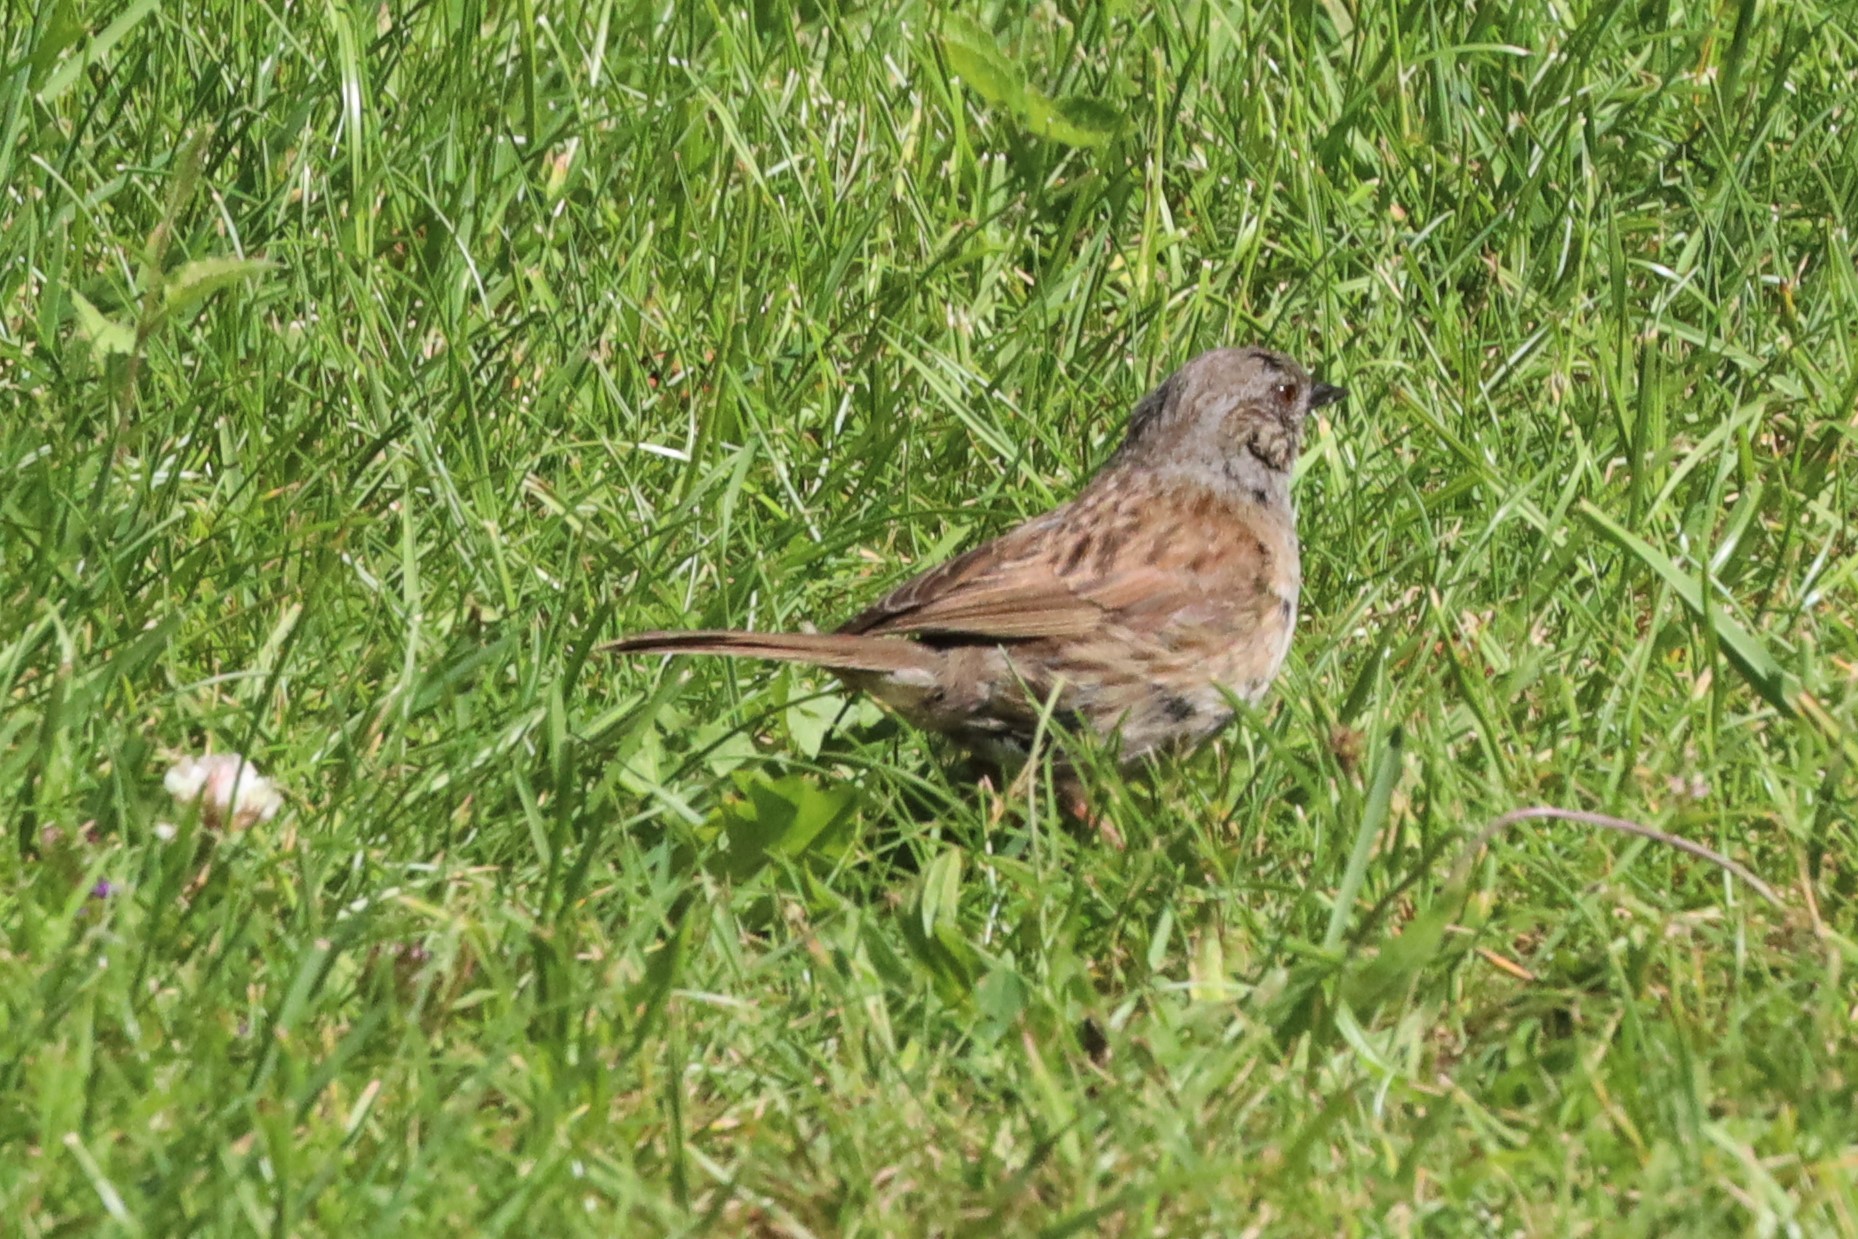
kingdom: Animalia
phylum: Chordata
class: Aves
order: Passeriformes
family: Prunellidae
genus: Prunella
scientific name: Prunella modularis
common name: Dunnock
